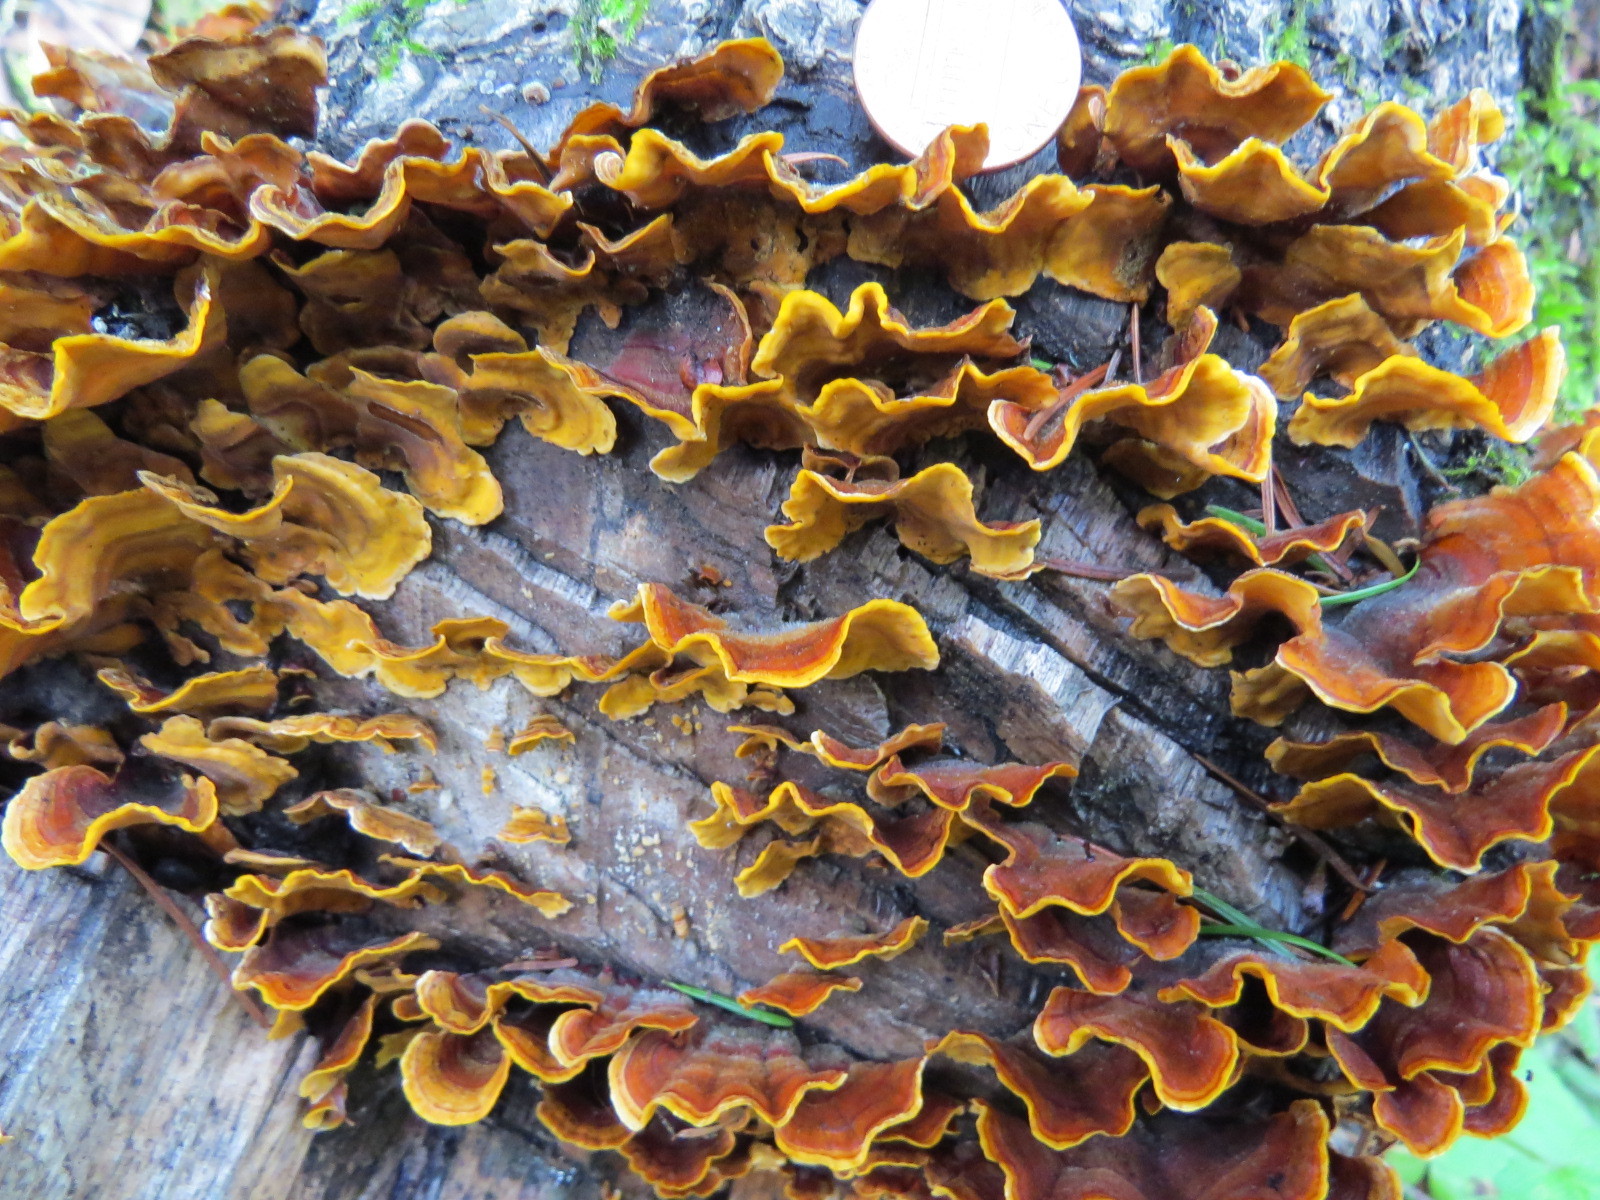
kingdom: Fungi
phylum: Basidiomycota
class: Agaricomycetes
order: Russulales
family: Stereaceae
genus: Stereum
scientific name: Stereum hirsutum
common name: Hairy curtain crust
